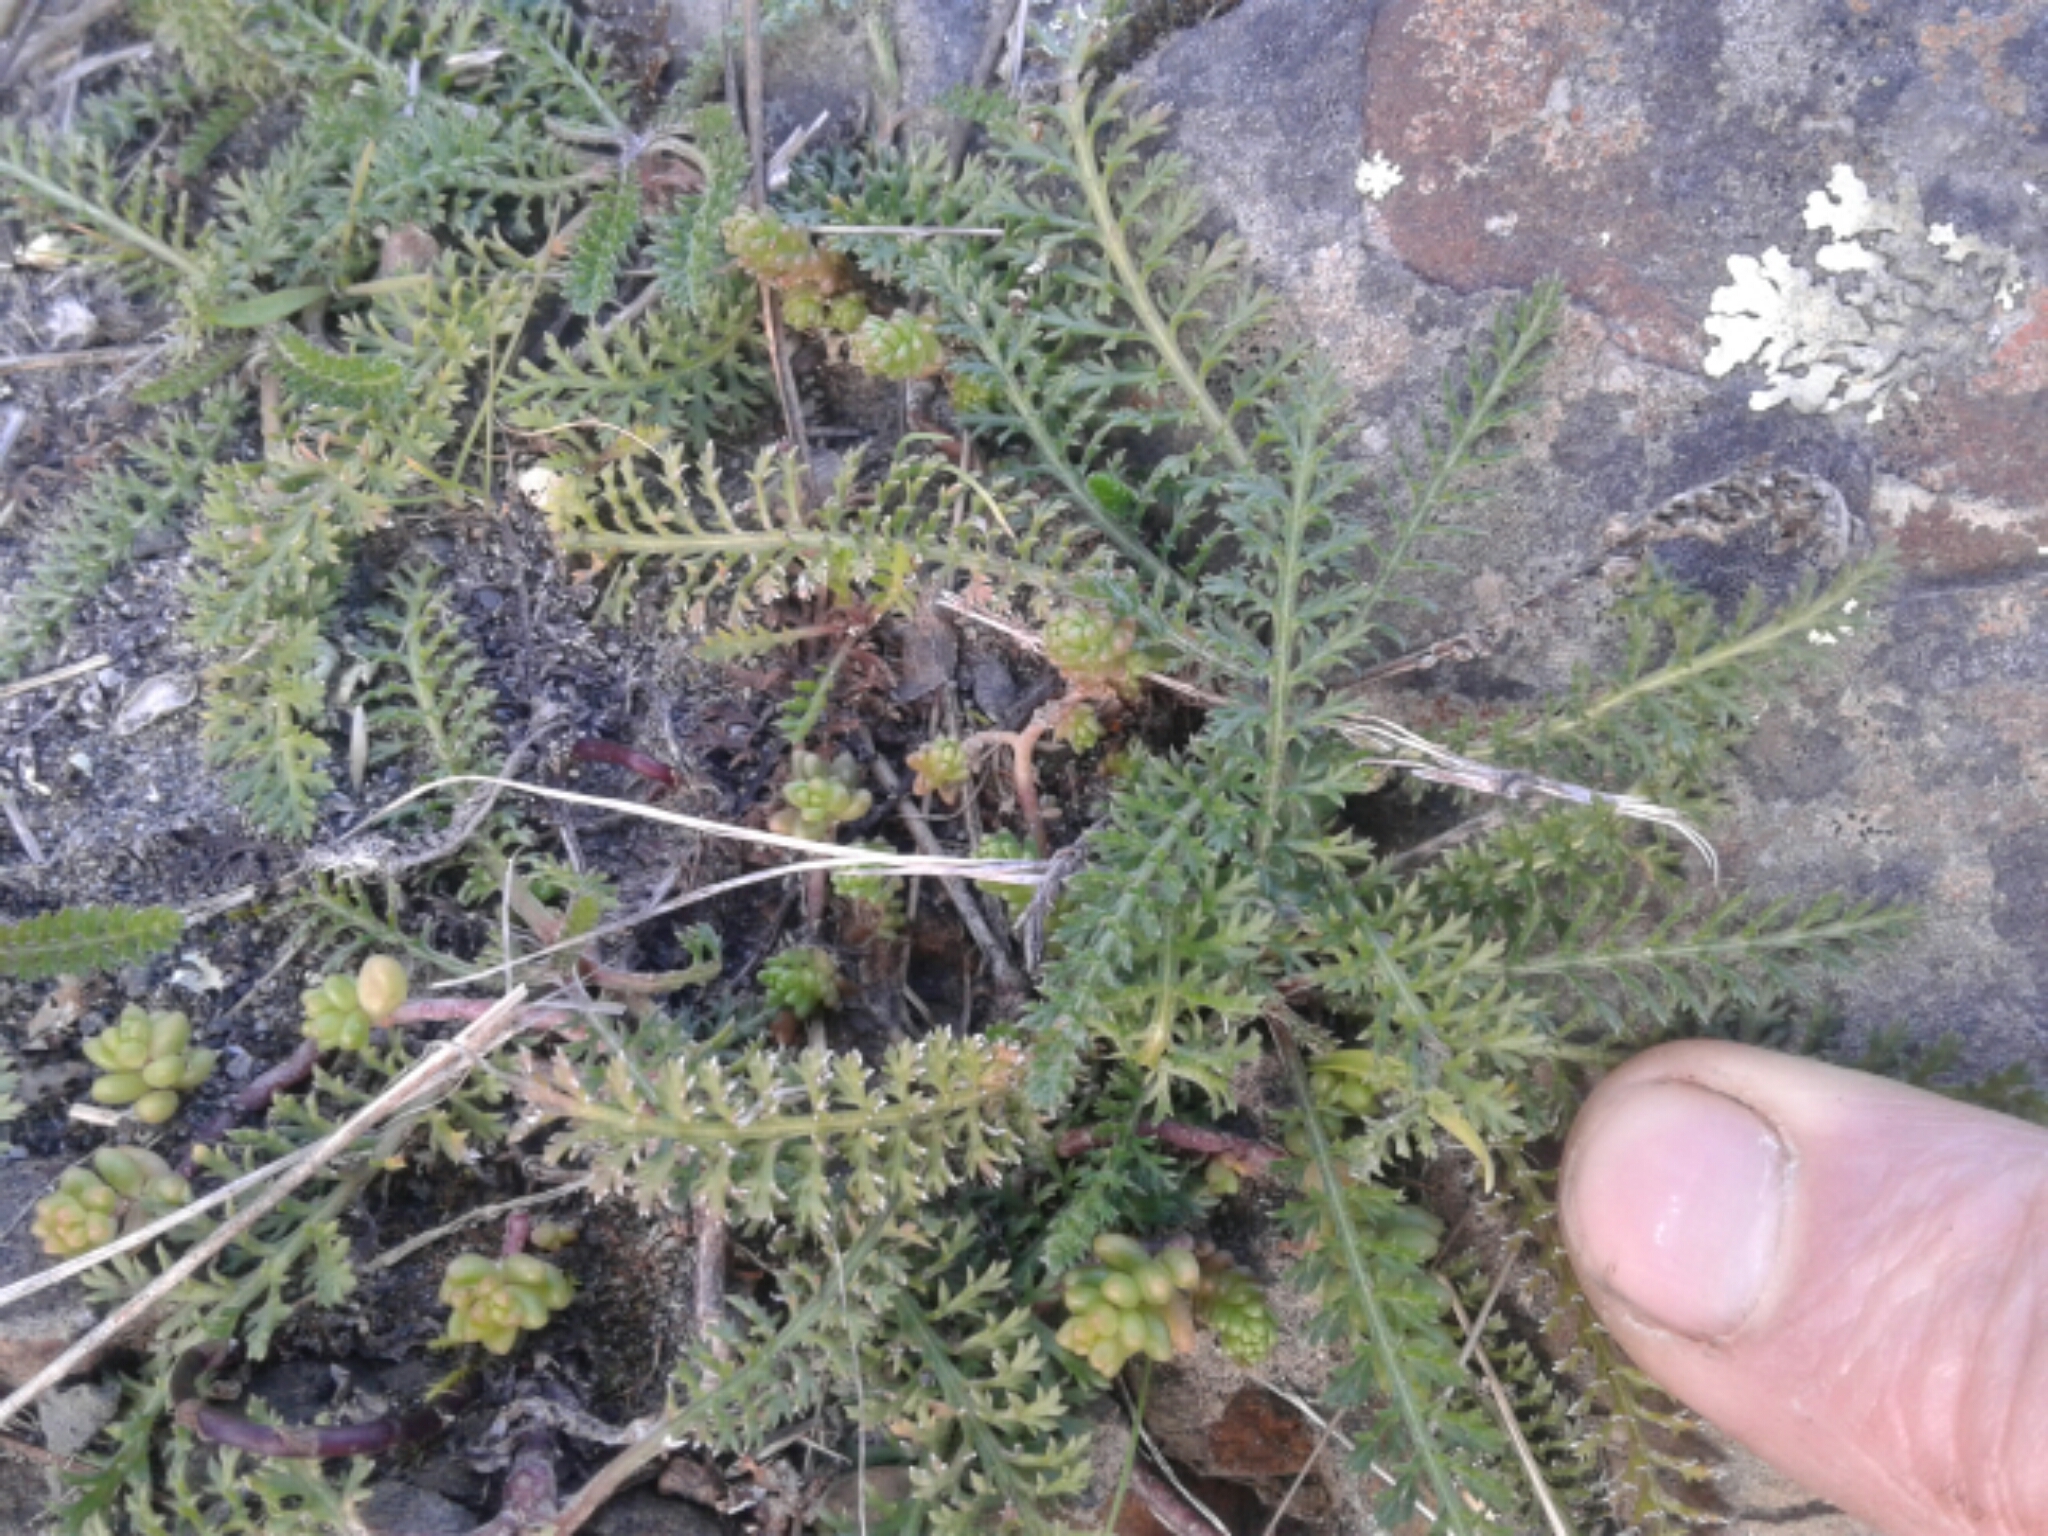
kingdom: Plantae
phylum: Tracheophyta
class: Magnoliopsida
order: Asterales
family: Asteraceae
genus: Achillea
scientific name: Achillea millefolium
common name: Yarrow
